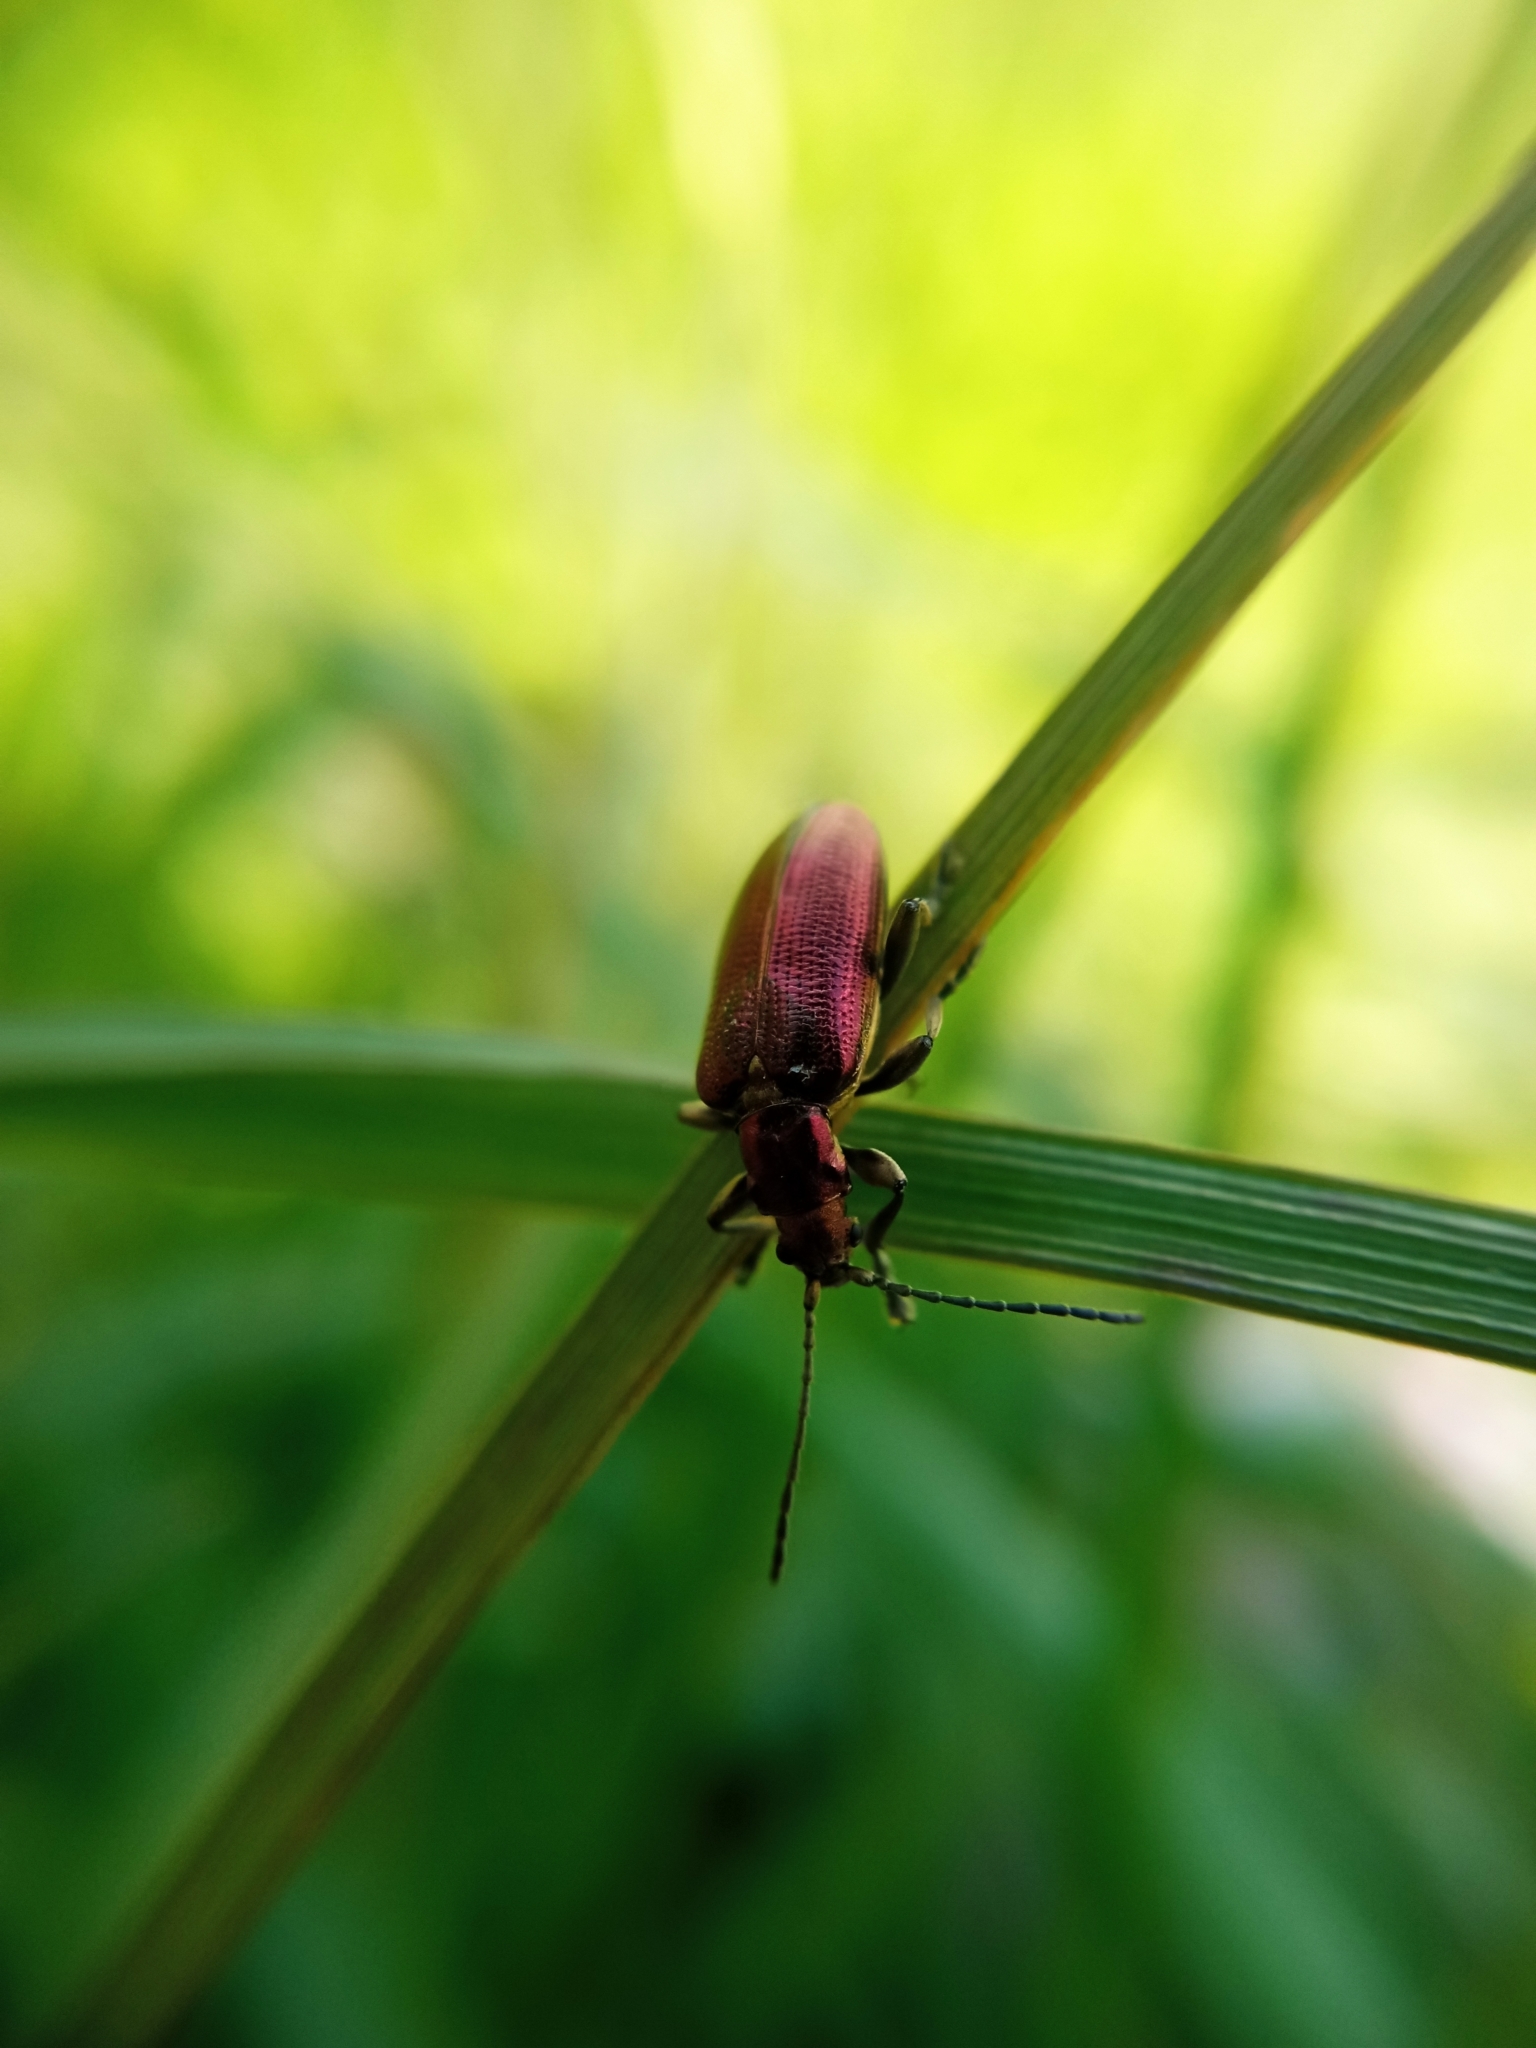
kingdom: Animalia
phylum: Arthropoda
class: Insecta
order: Coleoptera
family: Chrysomelidae
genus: Plateumaris
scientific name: Plateumaris sericea
